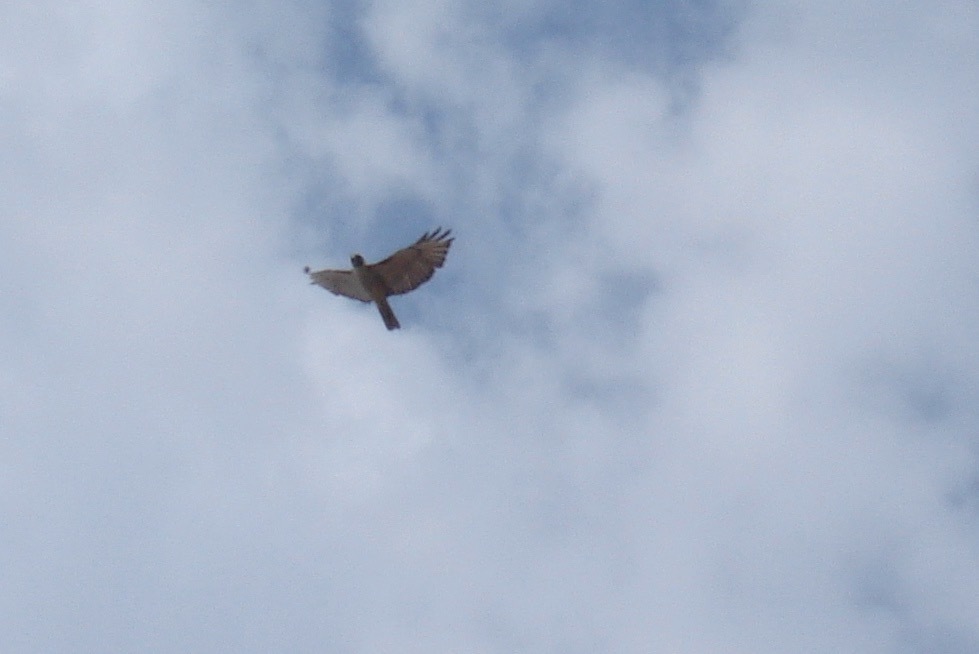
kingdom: Animalia
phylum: Chordata
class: Aves
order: Accipitriformes
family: Accipitridae
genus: Buteo
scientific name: Buteo jamaicensis
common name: Red-tailed hawk
